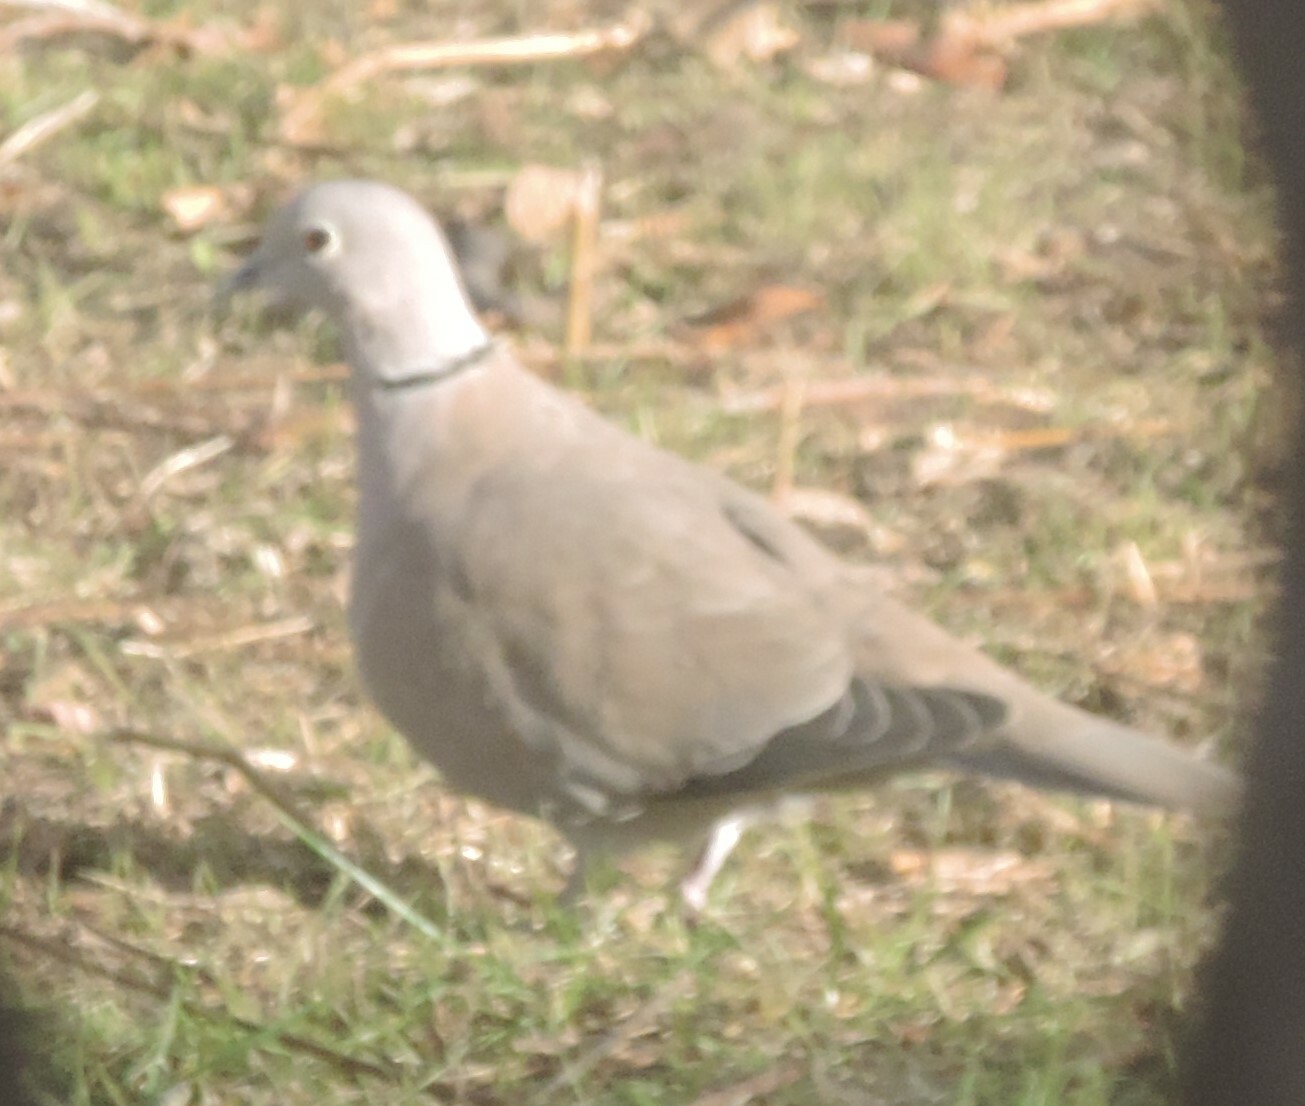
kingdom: Animalia
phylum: Chordata
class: Aves
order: Columbiformes
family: Columbidae
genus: Streptopelia
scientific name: Streptopelia decaocto
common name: Eurasian collared dove
